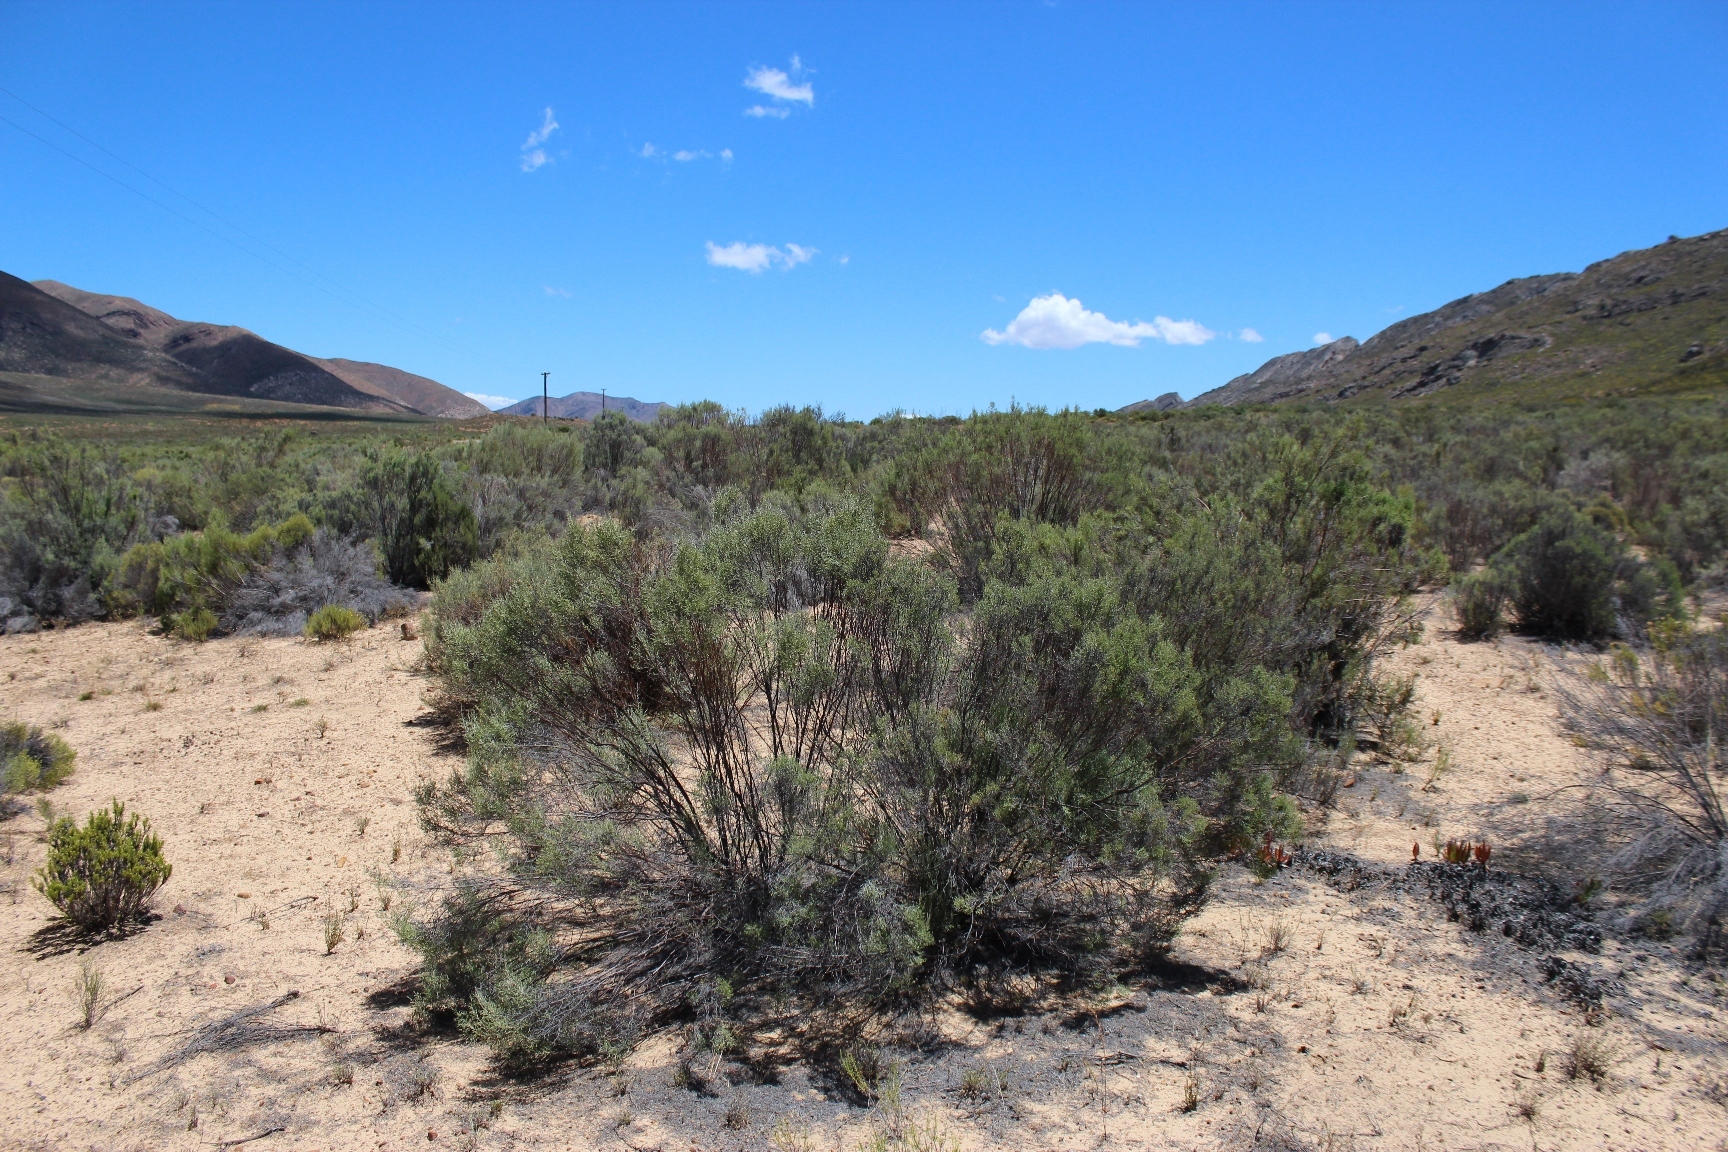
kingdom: Plantae
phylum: Tracheophyta
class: Magnoliopsida
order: Asterales
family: Asteraceae
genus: Dicerothamnus
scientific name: Dicerothamnus rhinocerotis
